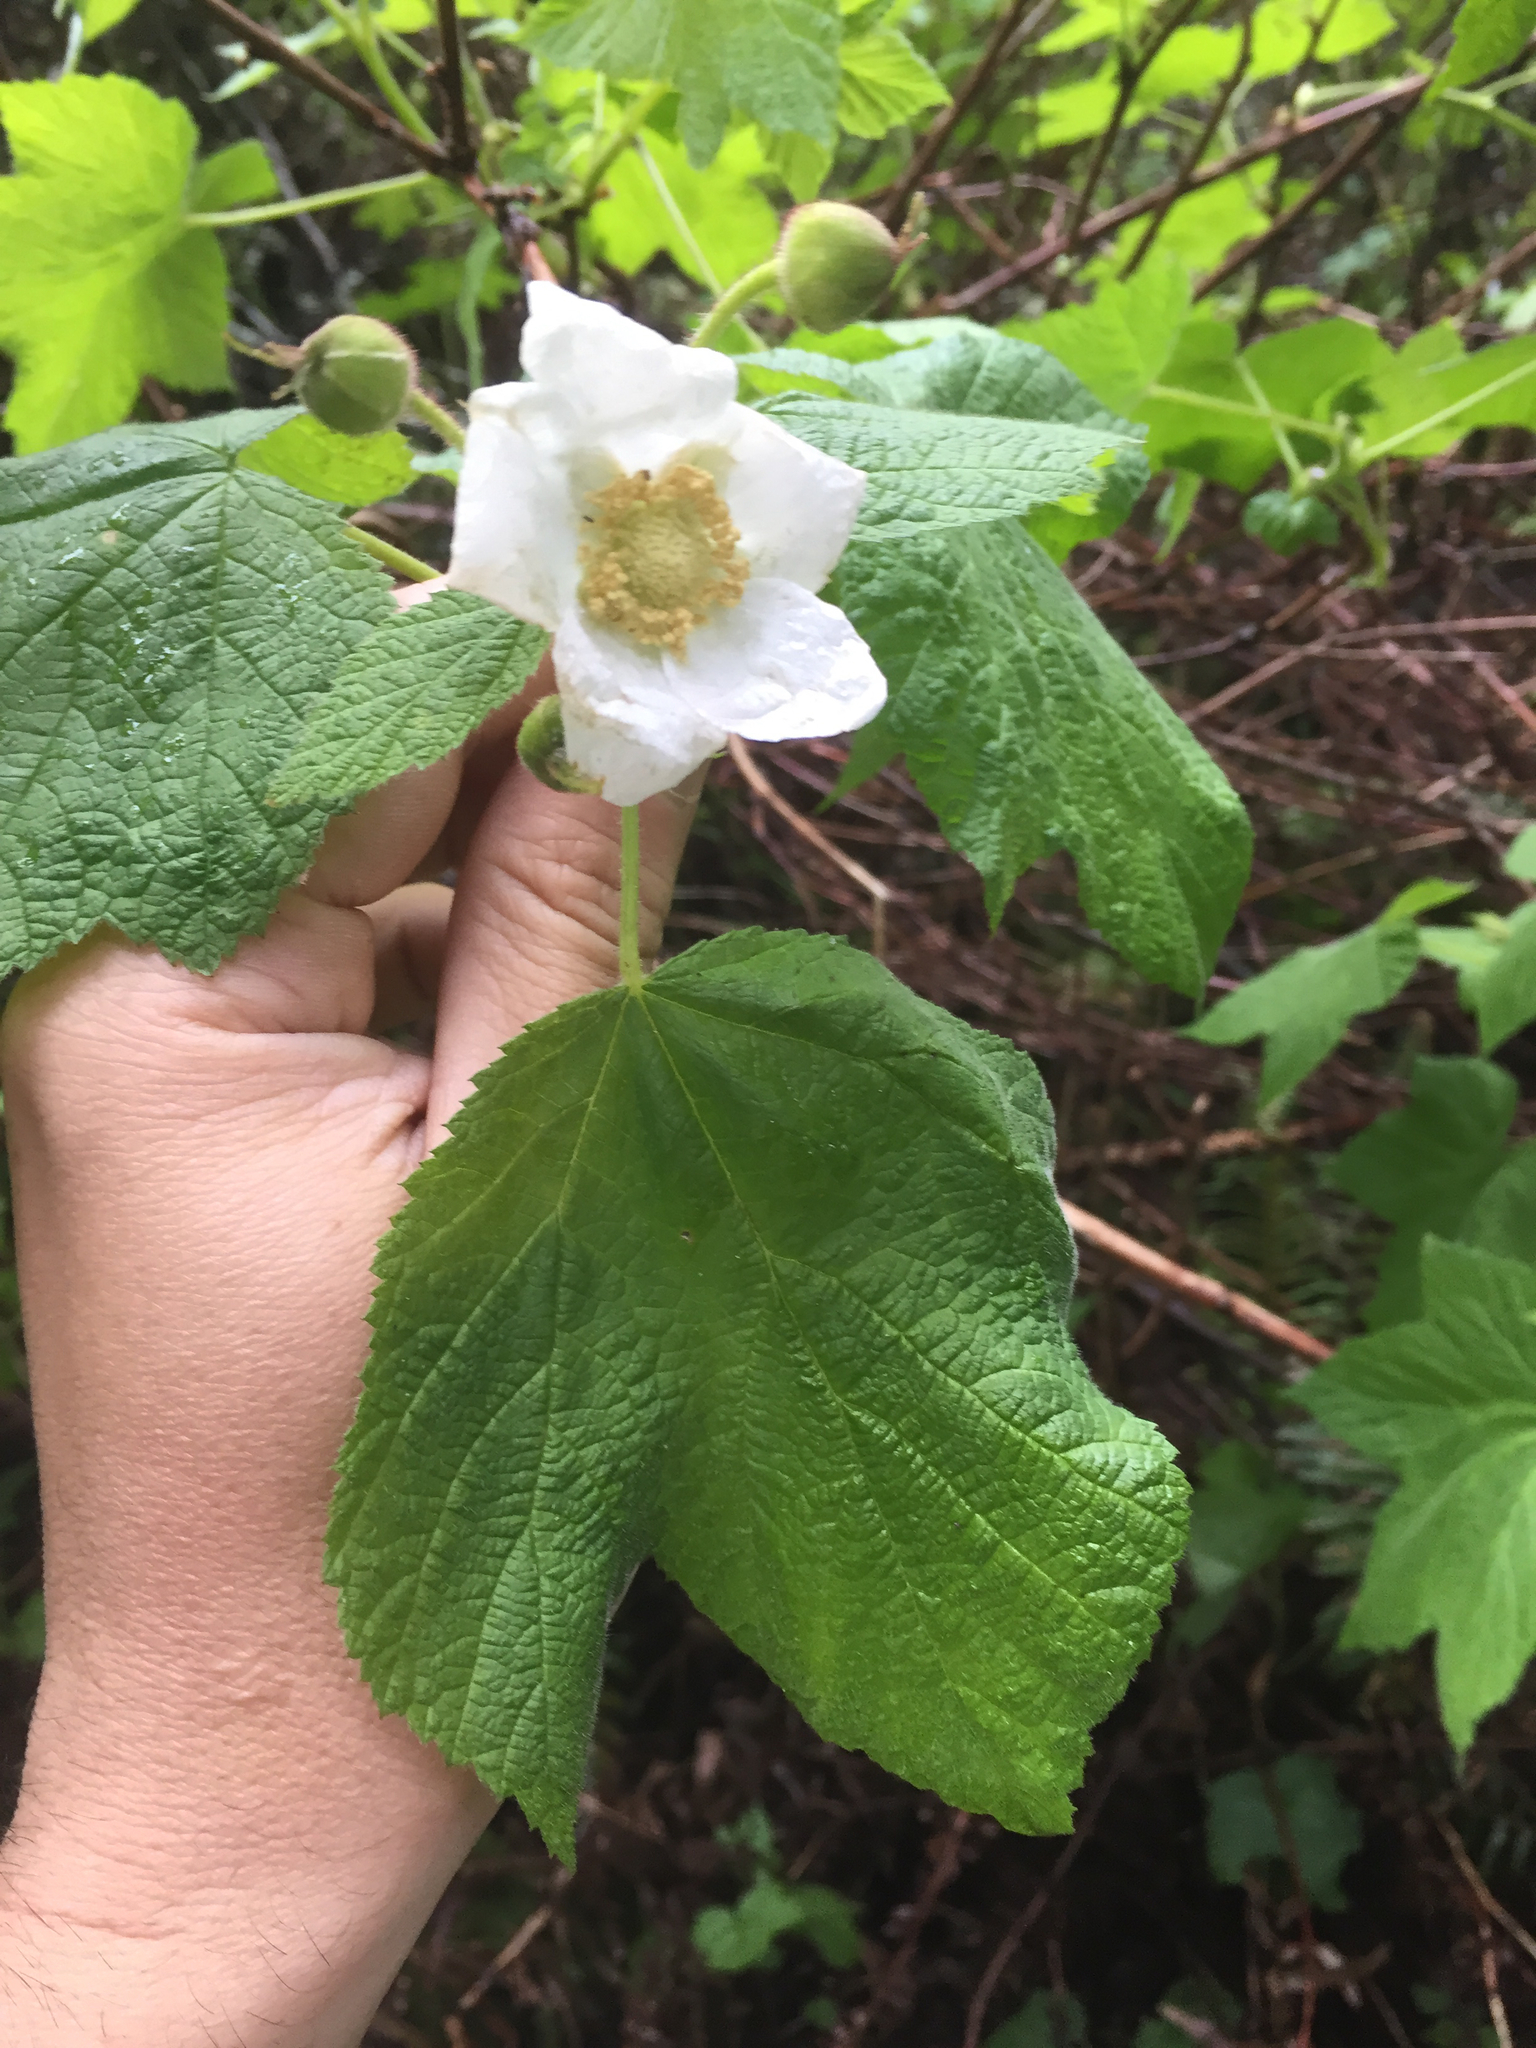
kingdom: Plantae
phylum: Tracheophyta
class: Magnoliopsida
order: Rosales
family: Rosaceae
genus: Rubus
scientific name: Rubus parviflorus
